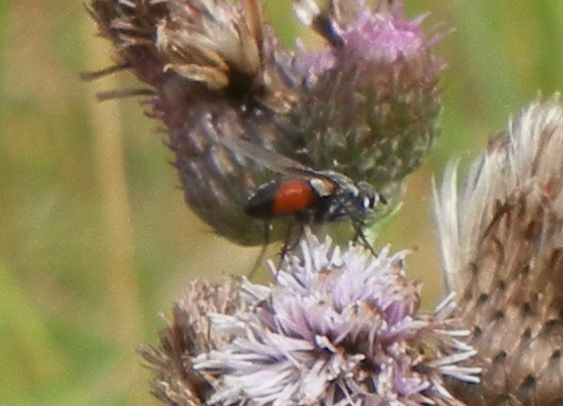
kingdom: Animalia
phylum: Arthropoda
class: Insecta
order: Diptera
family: Tachinidae
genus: Eriothrix
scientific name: Eriothrix rufomaculatus
